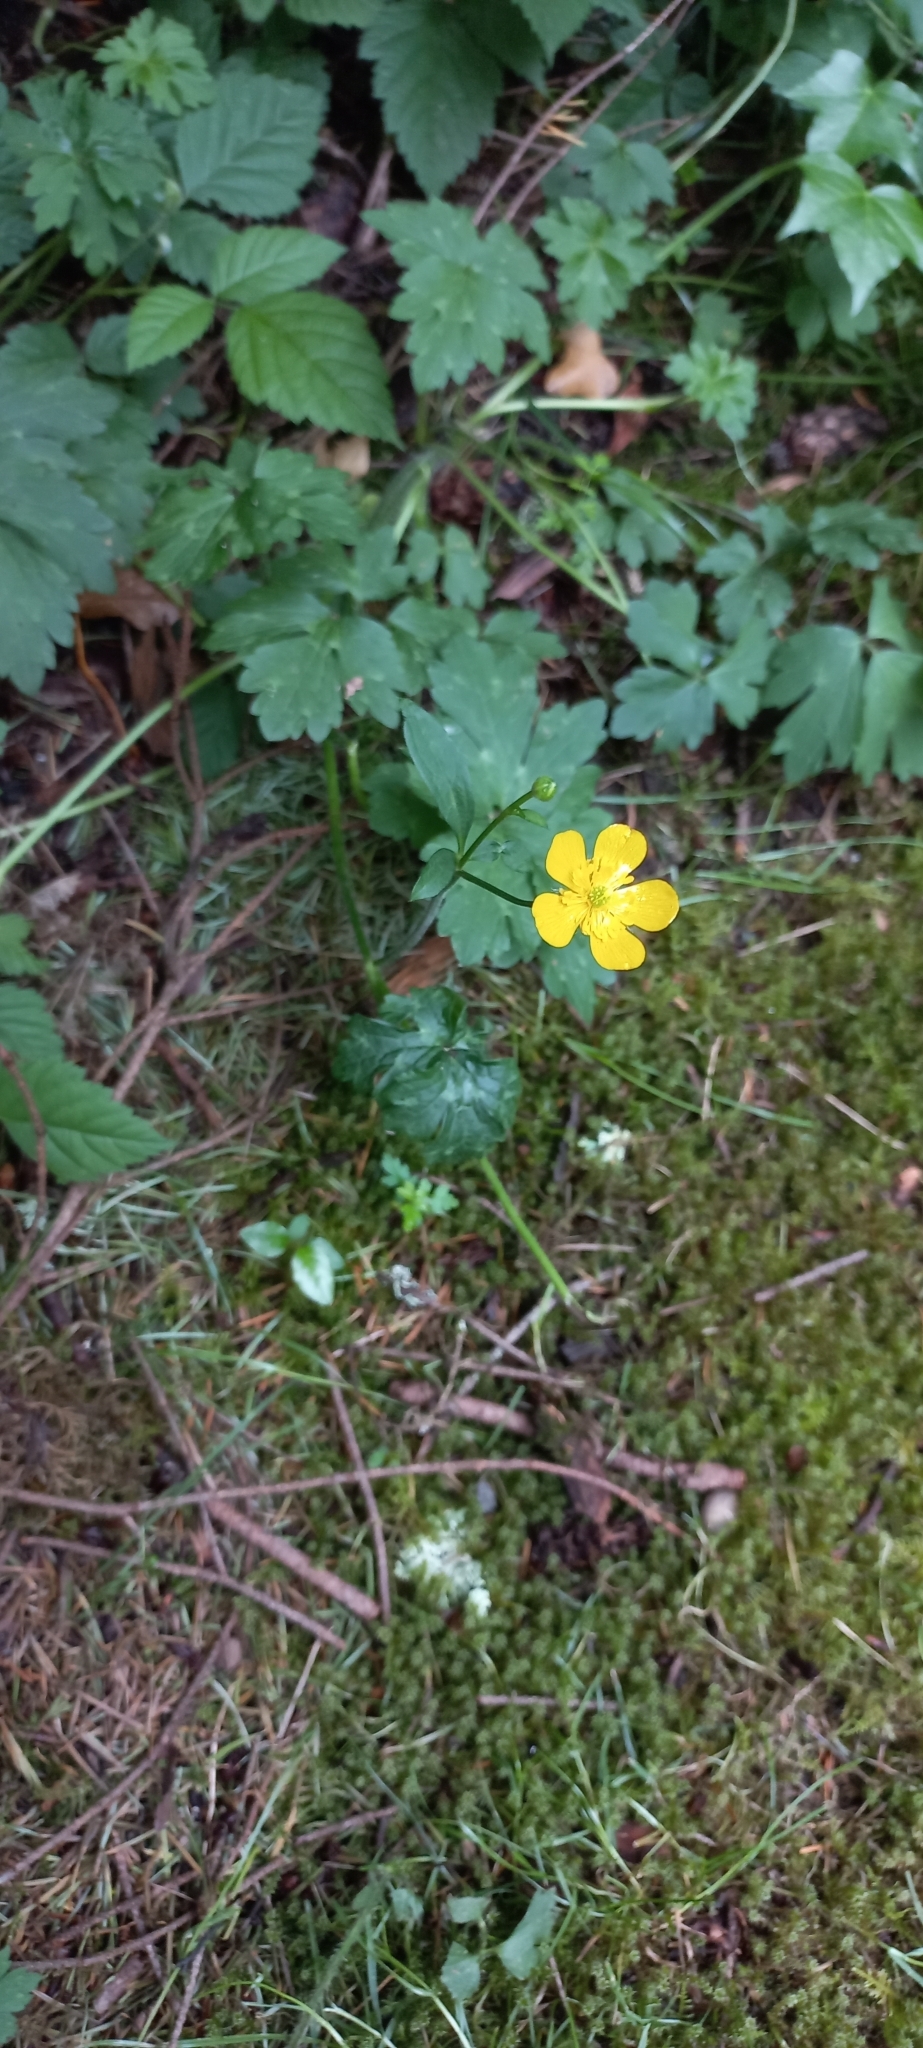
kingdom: Plantae
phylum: Tracheophyta
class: Magnoliopsida
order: Ranunculales
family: Ranunculaceae
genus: Ranunculus
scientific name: Ranunculus repens
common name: Creeping buttercup
